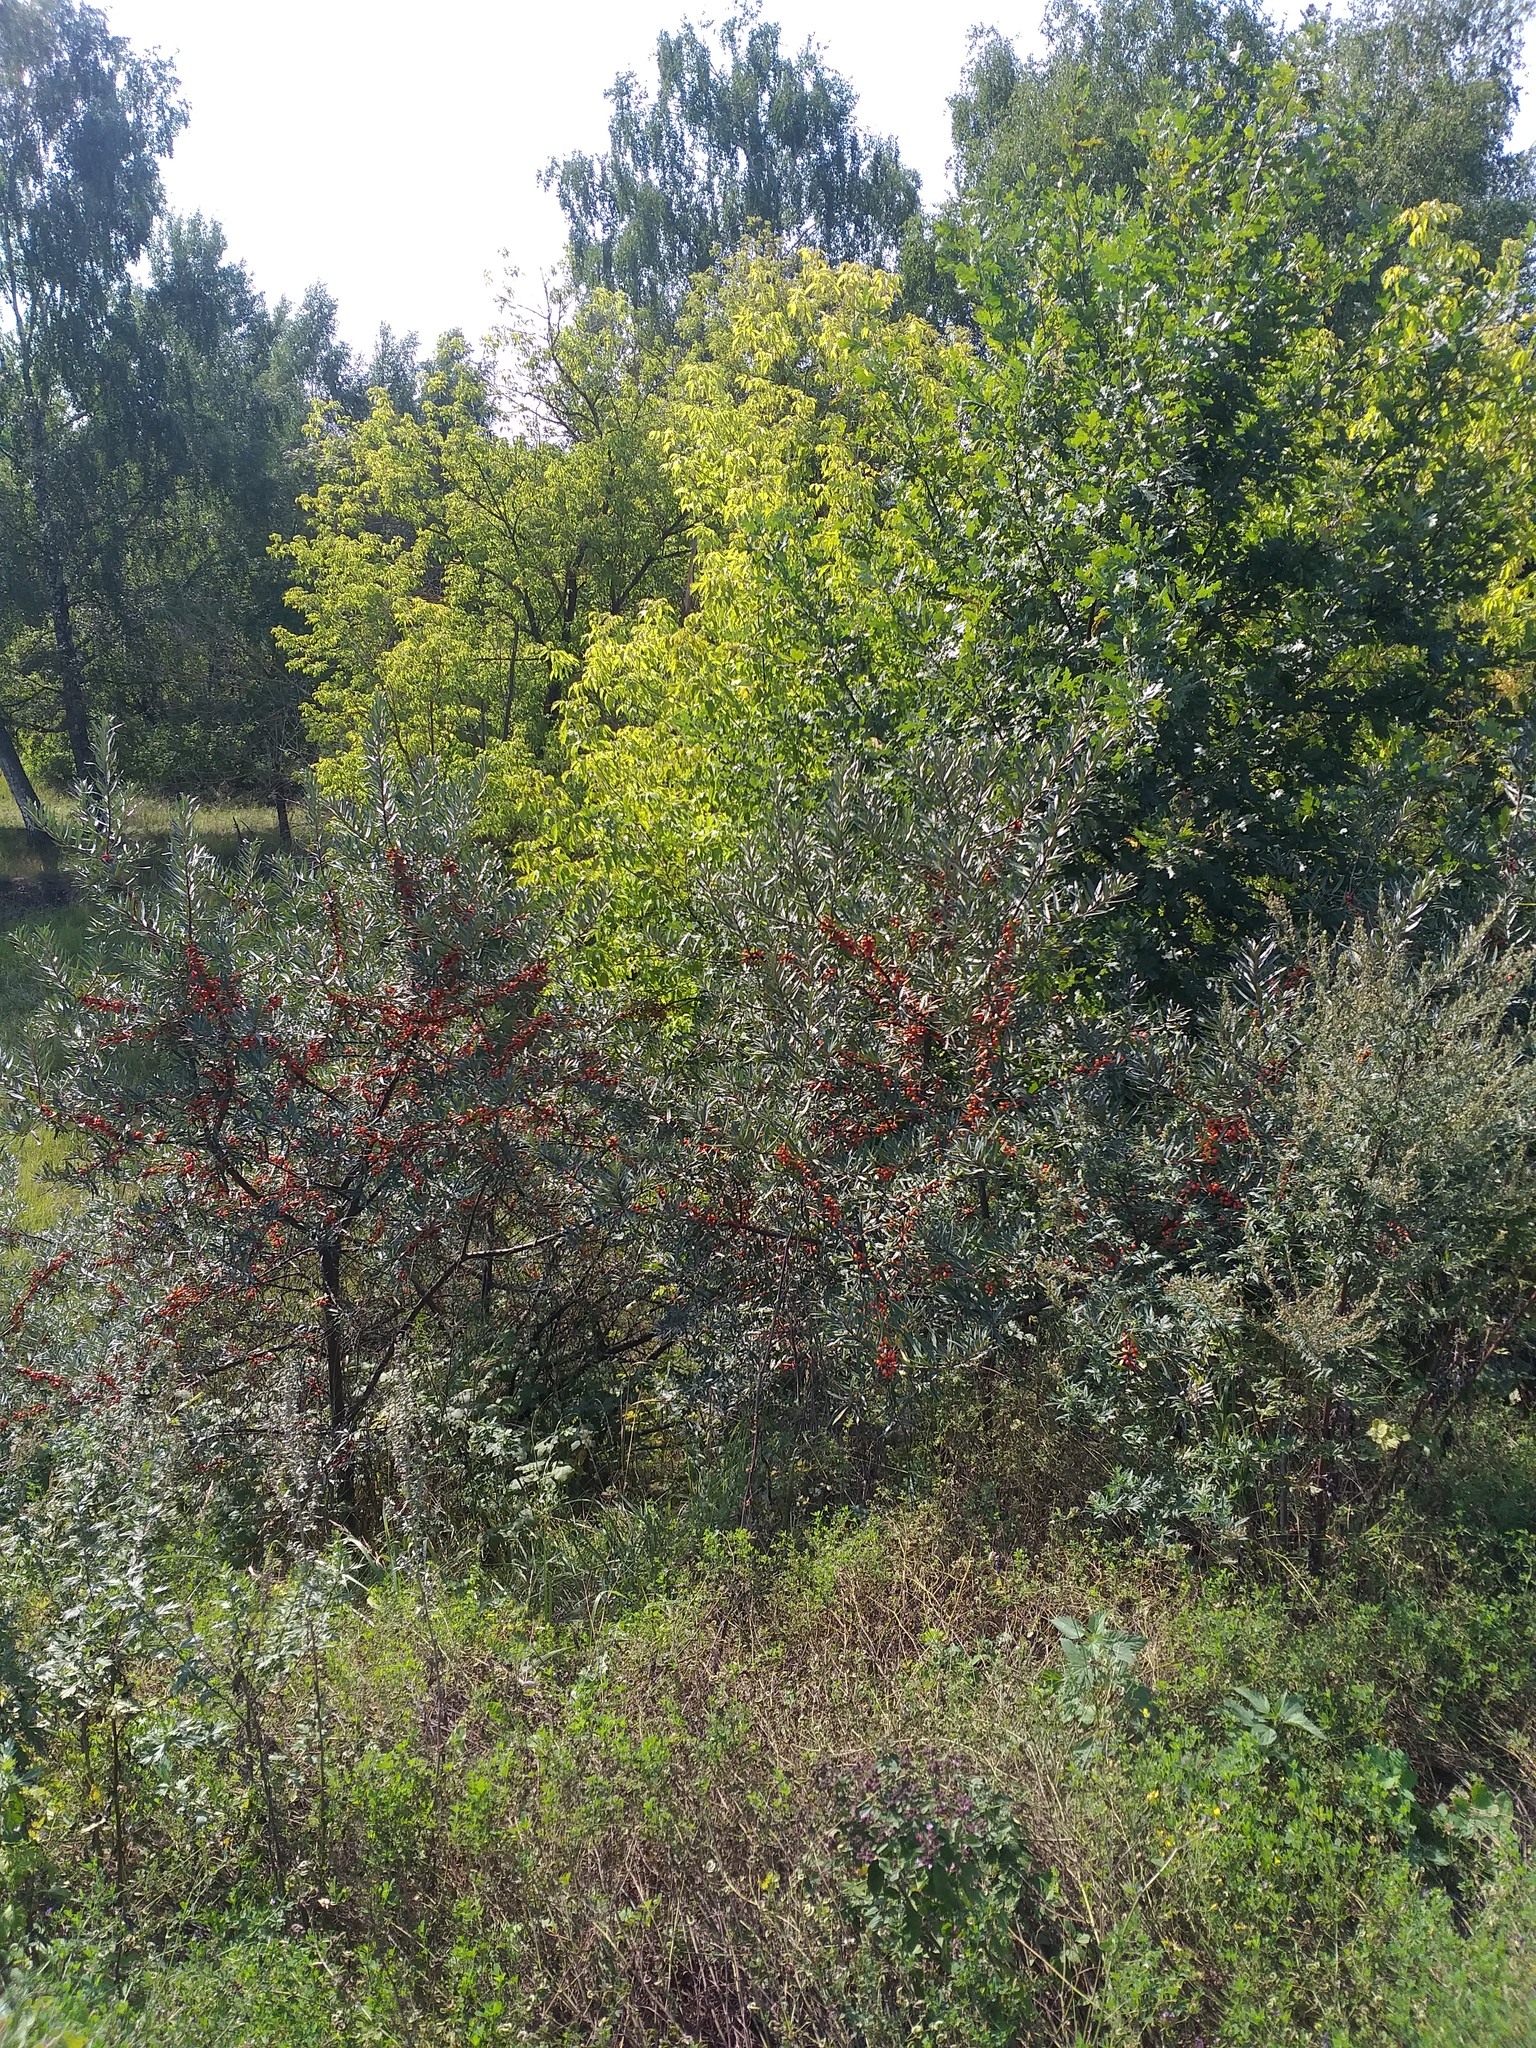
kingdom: Plantae
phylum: Tracheophyta
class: Magnoliopsida
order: Rosales
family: Elaeagnaceae
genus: Hippophae
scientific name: Hippophae rhamnoides
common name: Sea-buckthorn
